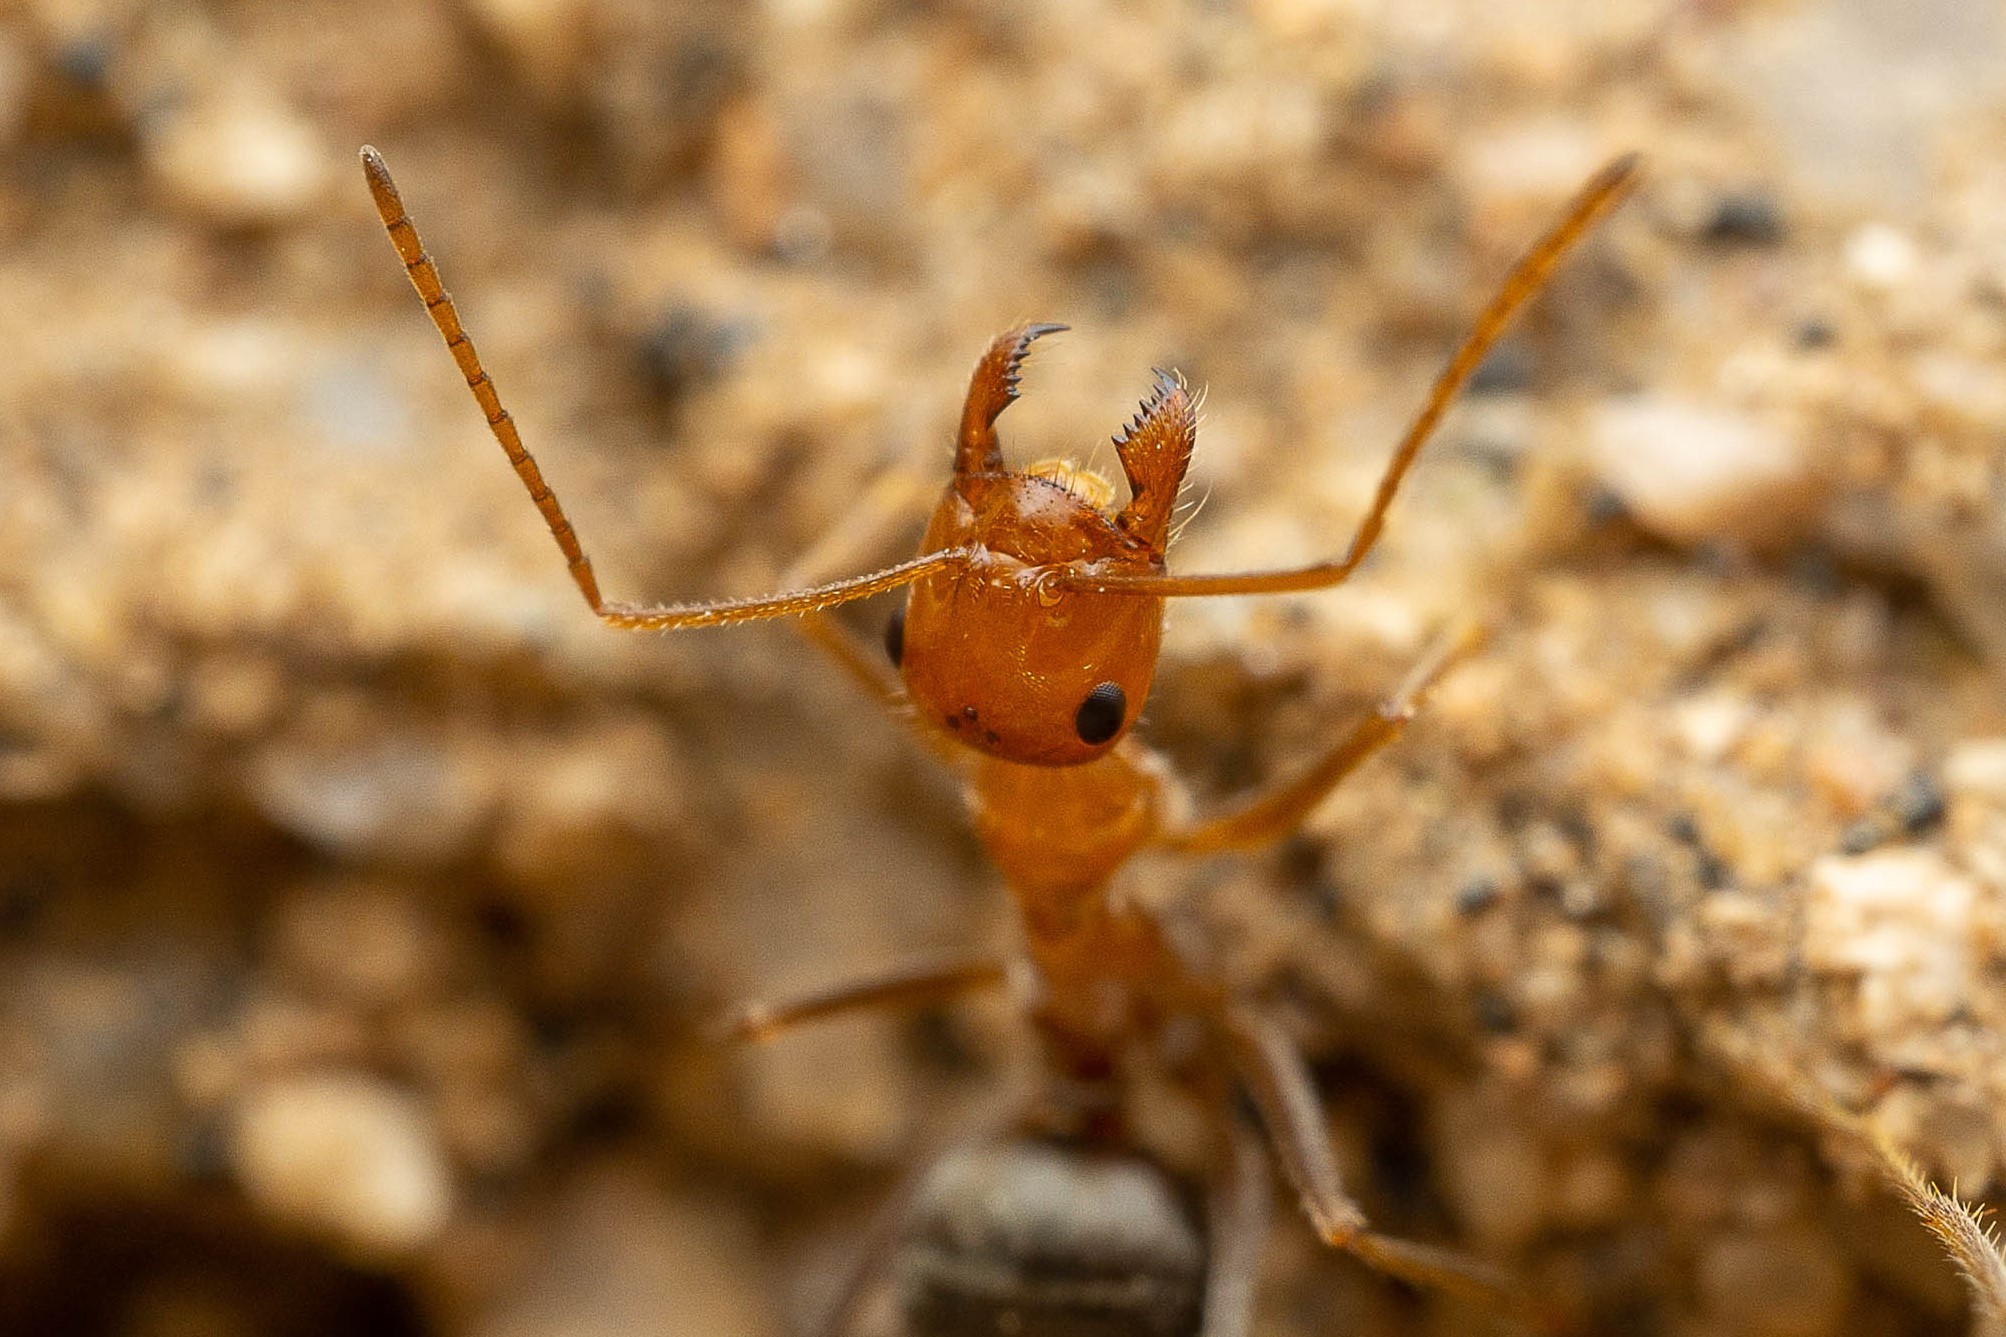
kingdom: Animalia
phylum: Arthropoda
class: Insecta
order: Hymenoptera
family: Formicidae
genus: Myrmecocystus
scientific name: Myrmecocystus semirufus
